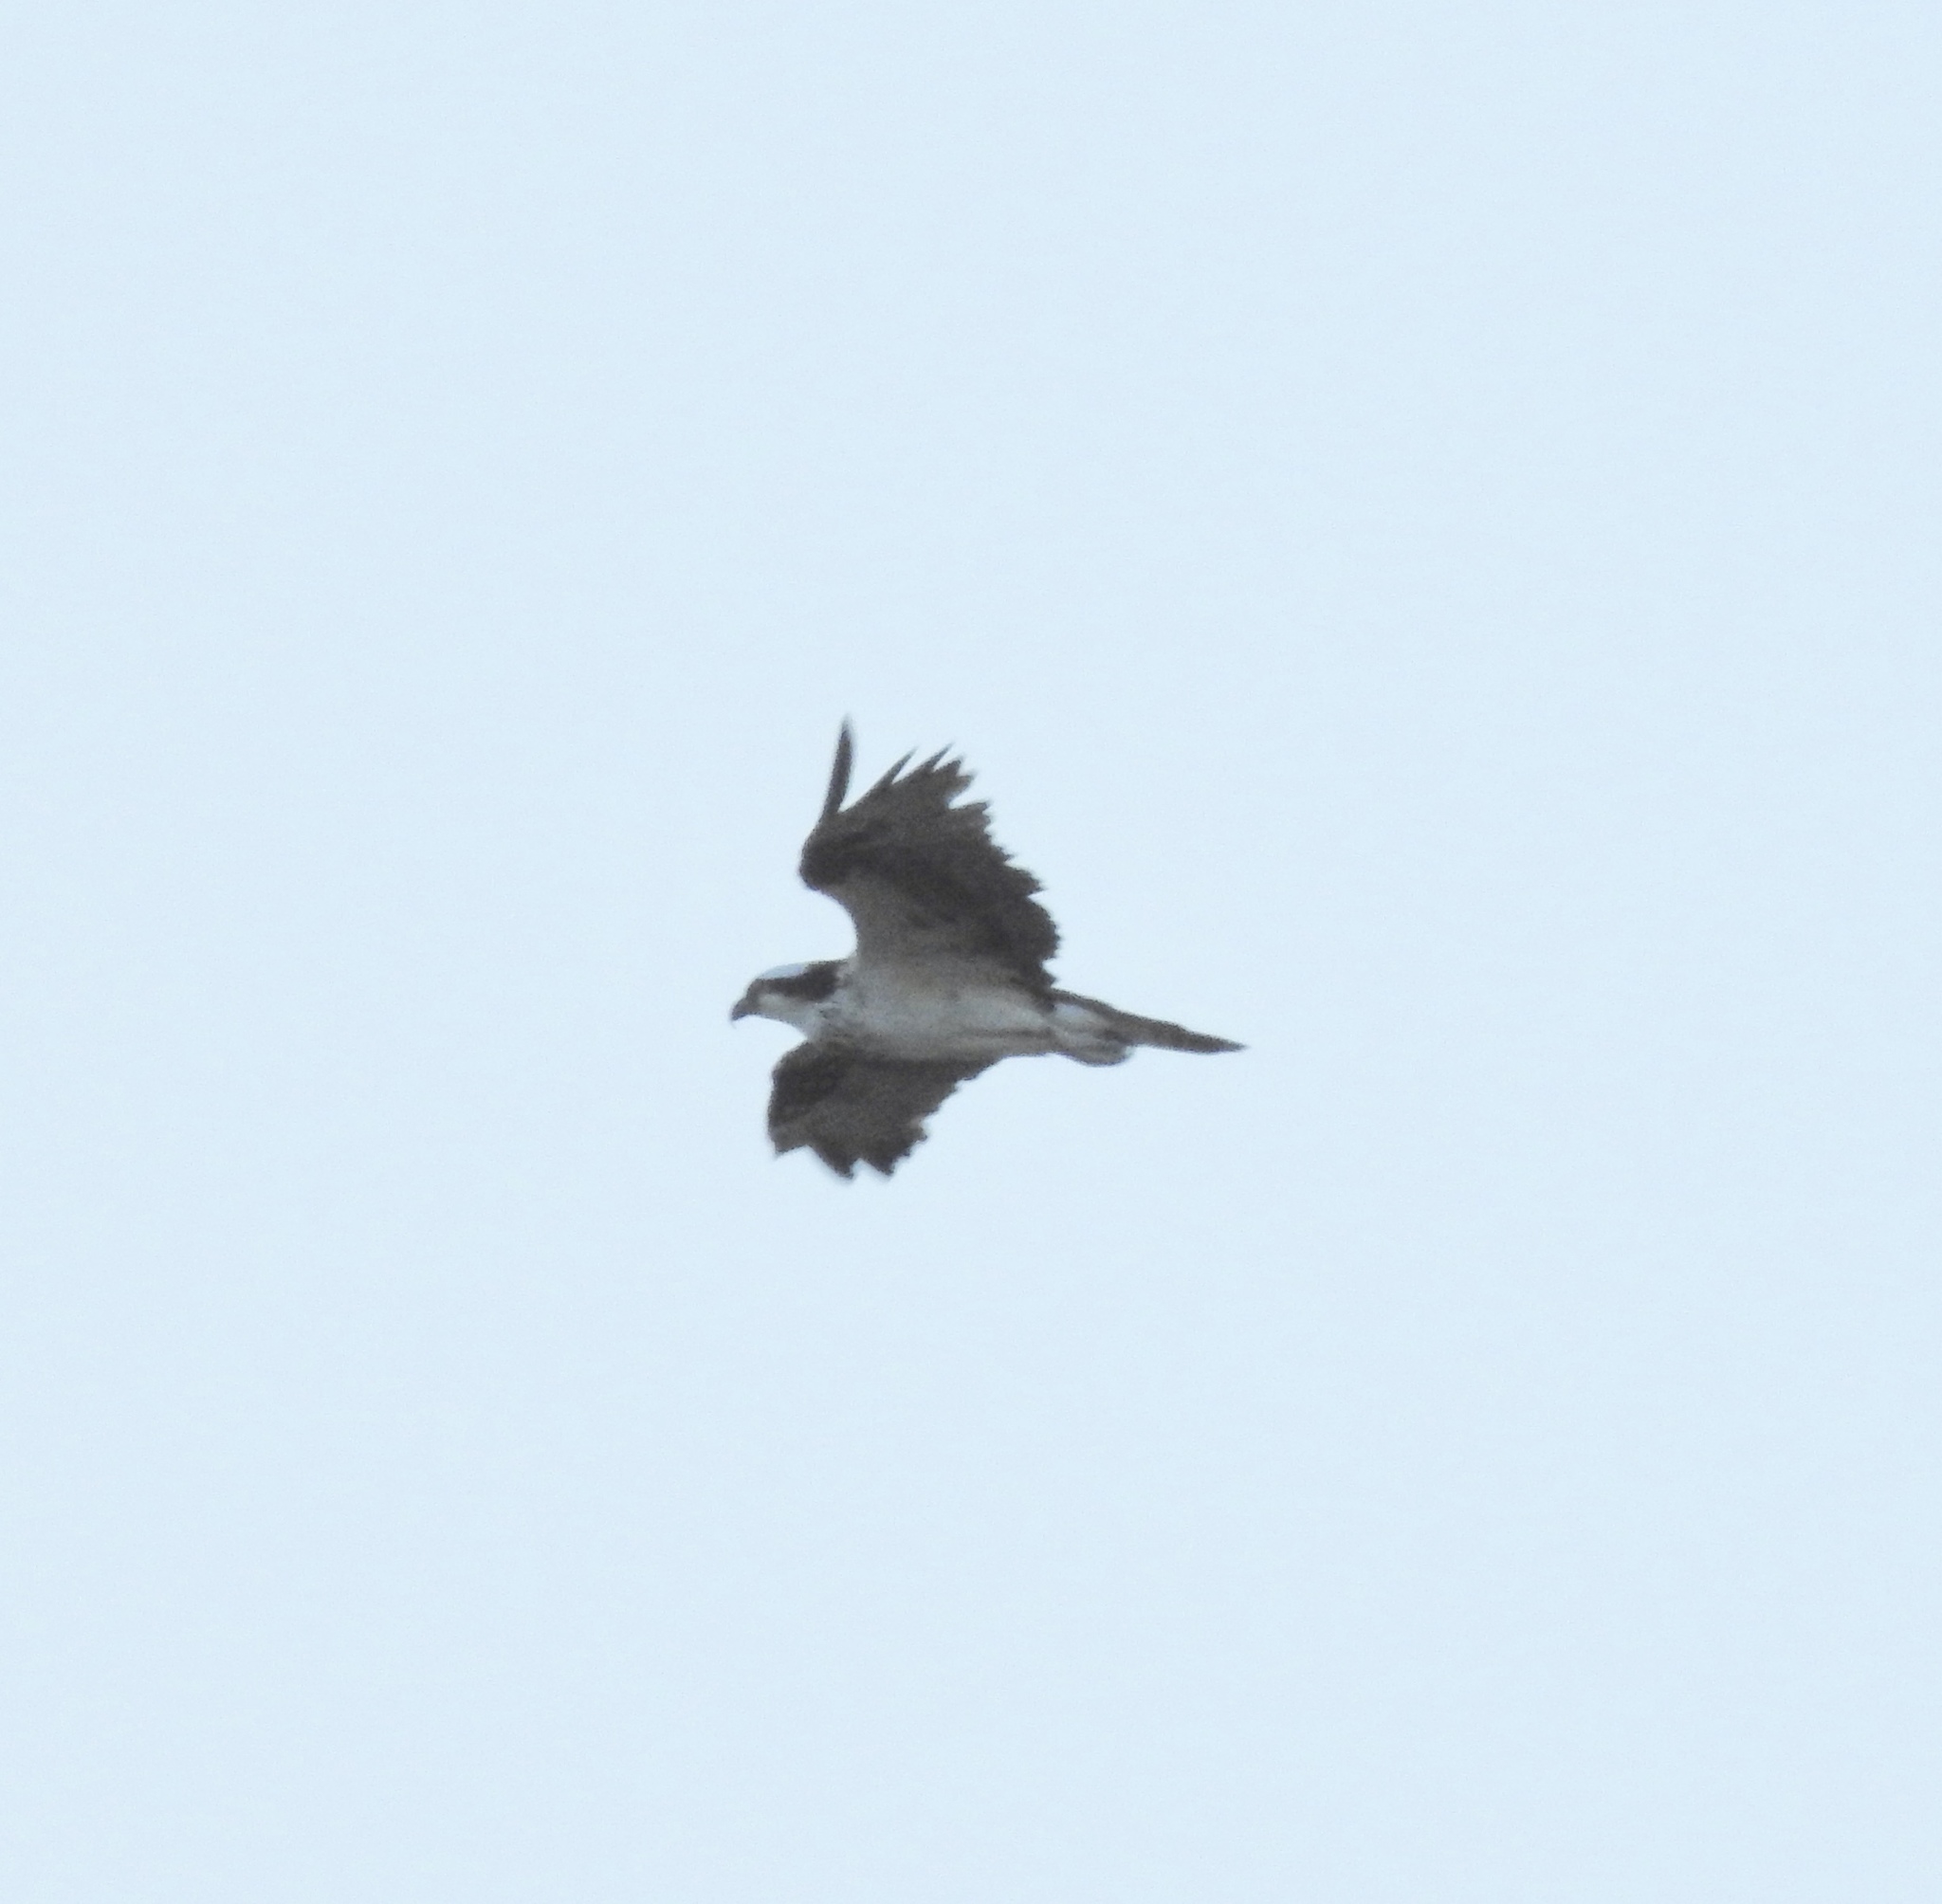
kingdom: Animalia
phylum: Chordata
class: Aves
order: Accipitriformes
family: Pandionidae
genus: Pandion
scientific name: Pandion haliaetus
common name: Osprey
